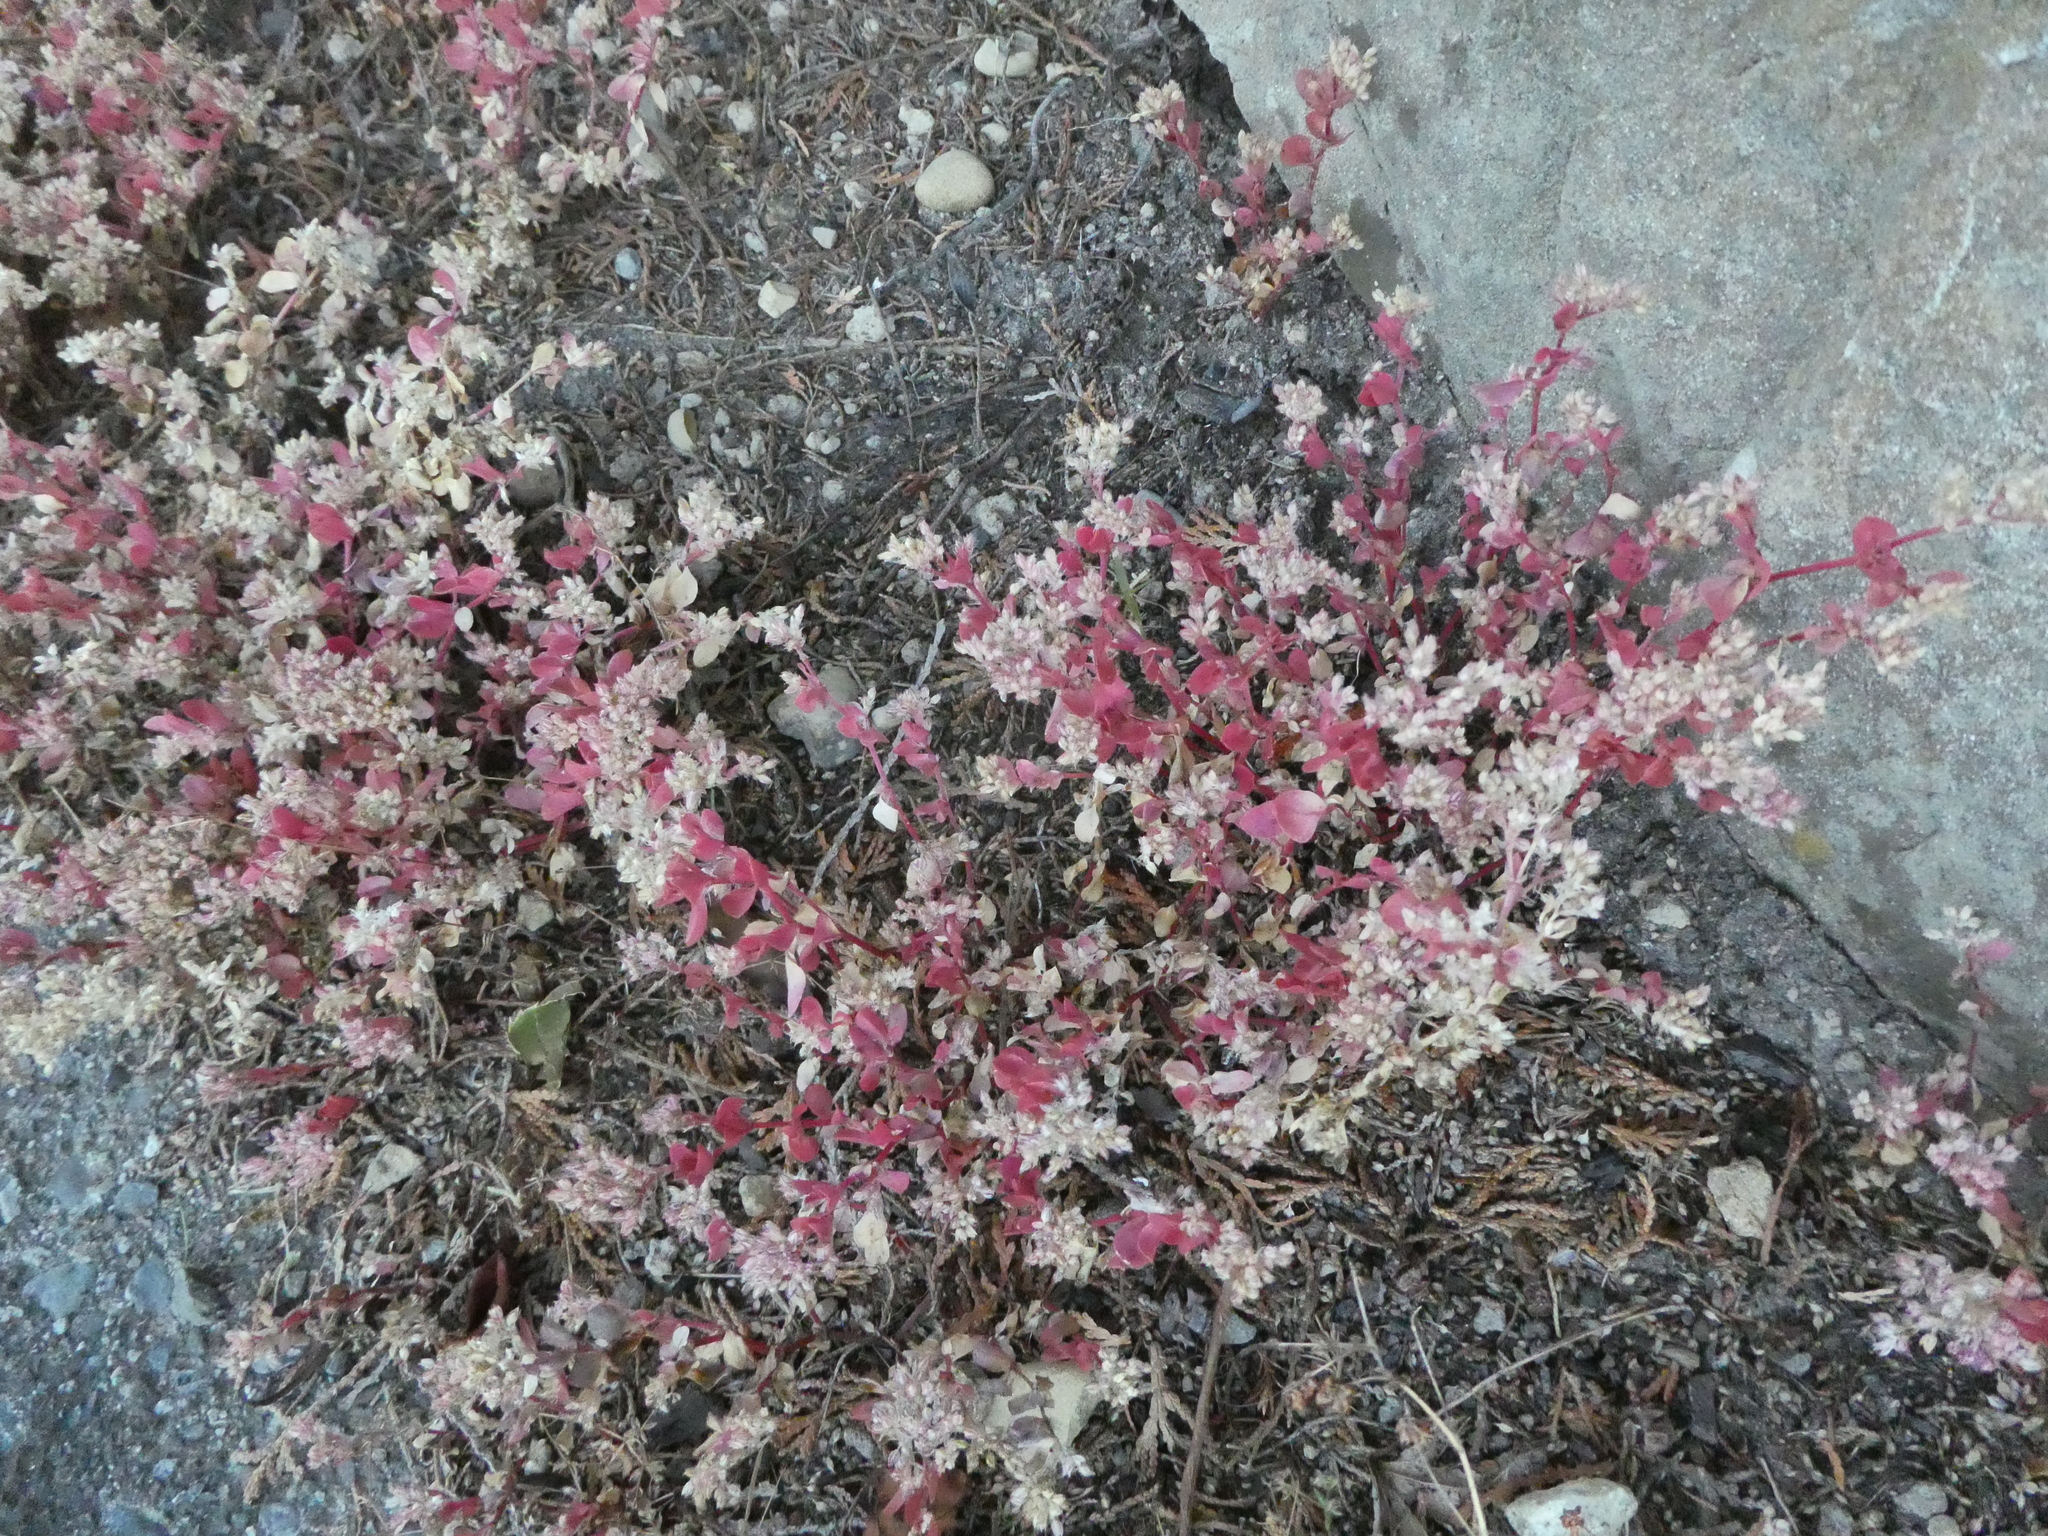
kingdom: Plantae
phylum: Tracheophyta
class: Magnoliopsida
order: Caryophyllales
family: Caryophyllaceae
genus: Polycarpon
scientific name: Polycarpon tetraphyllum
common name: Four-leaved all-seed
